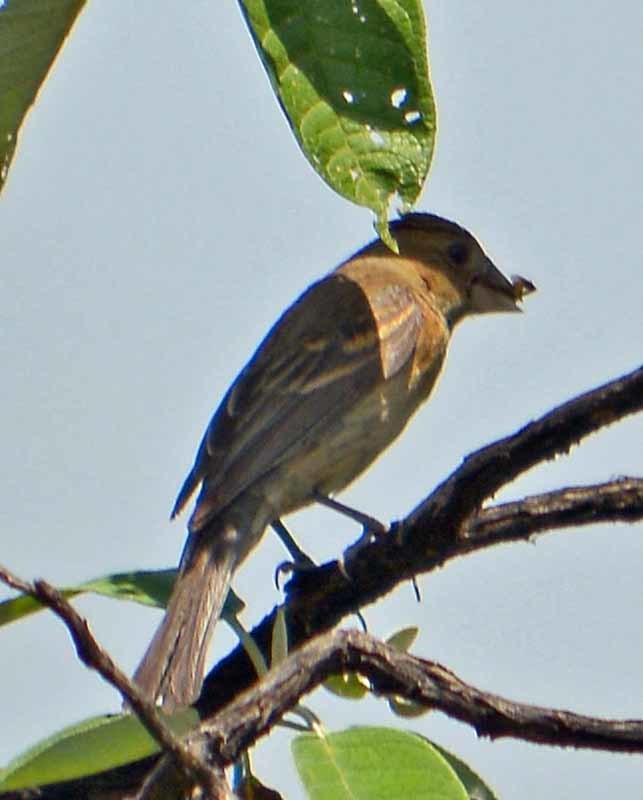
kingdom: Animalia
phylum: Chordata
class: Aves
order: Passeriformes
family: Cardinalidae
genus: Passerina
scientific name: Passerina caerulea
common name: Blue grosbeak
